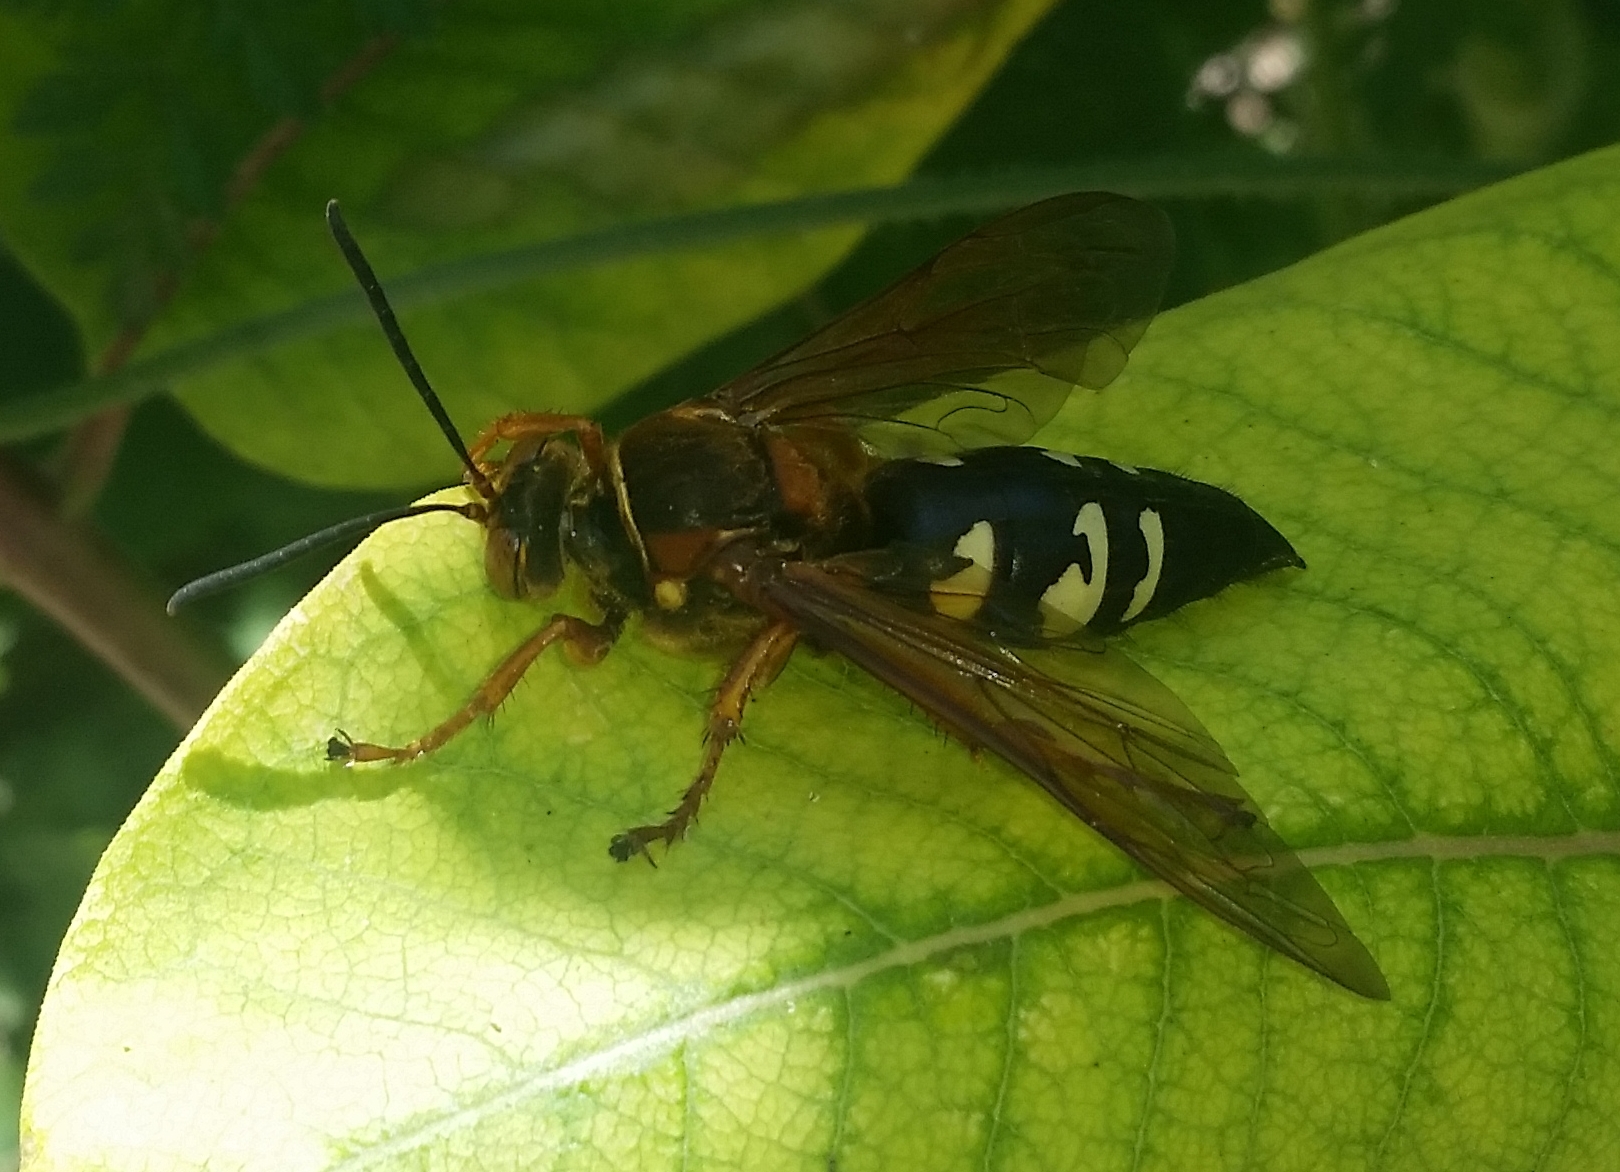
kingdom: Animalia
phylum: Arthropoda
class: Insecta
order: Hymenoptera
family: Crabronidae
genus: Sphecius
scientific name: Sphecius speciosus
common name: Cicada killer
